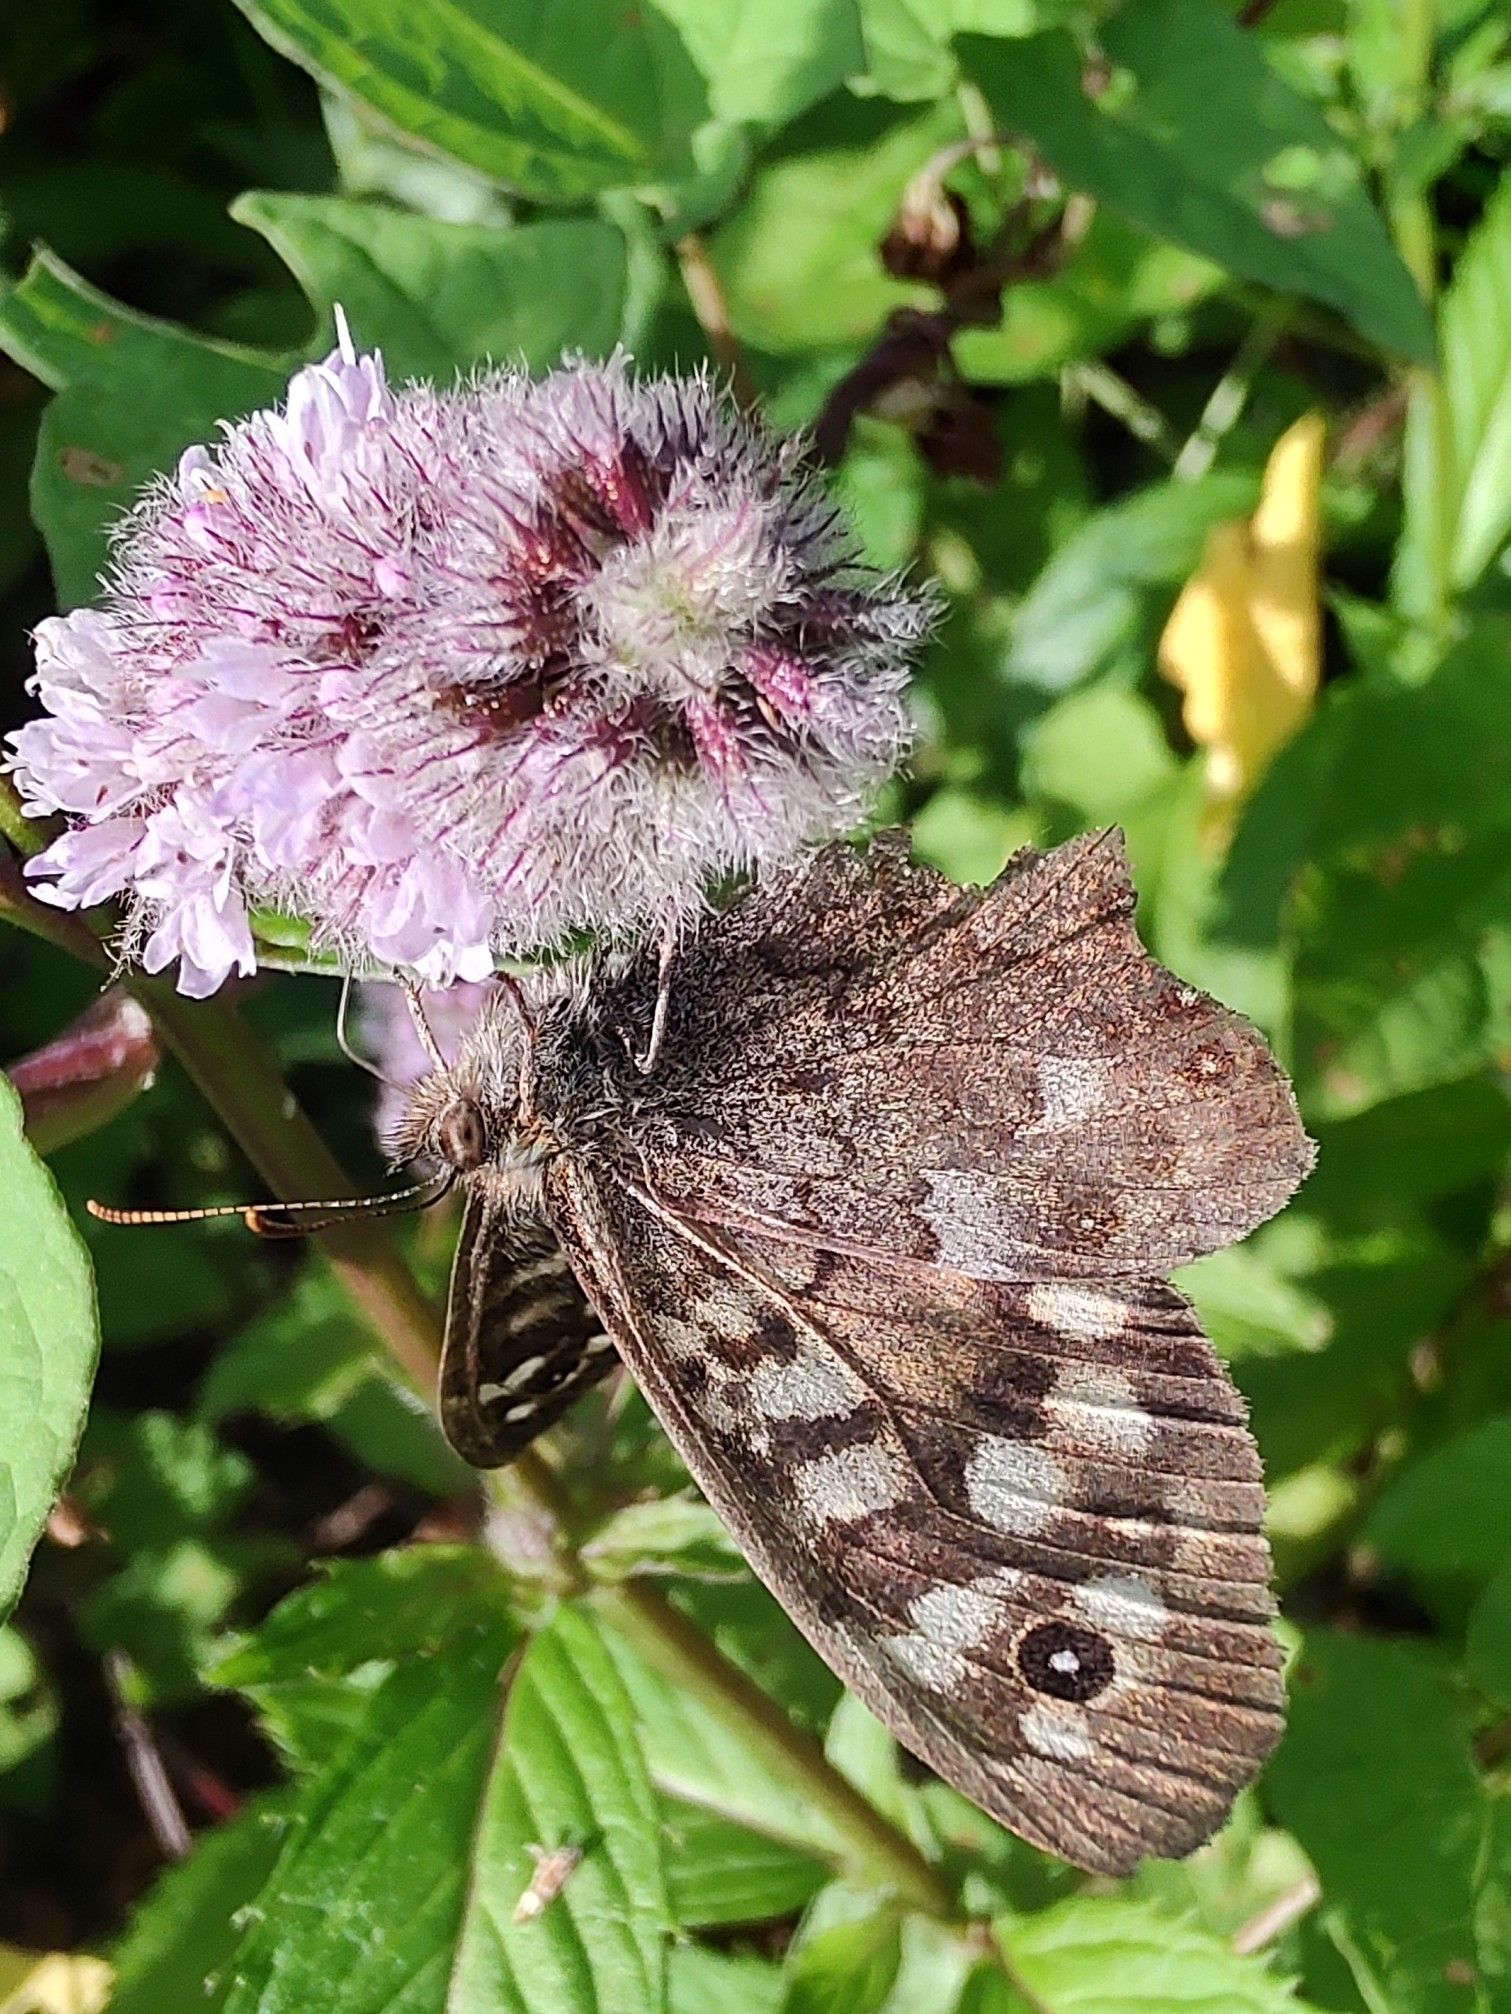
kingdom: Animalia
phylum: Arthropoda
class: Insecta
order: Lepidoptera
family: Nymphalidae
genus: Pararge
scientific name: Pararge aegeria
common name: Speckled wood
